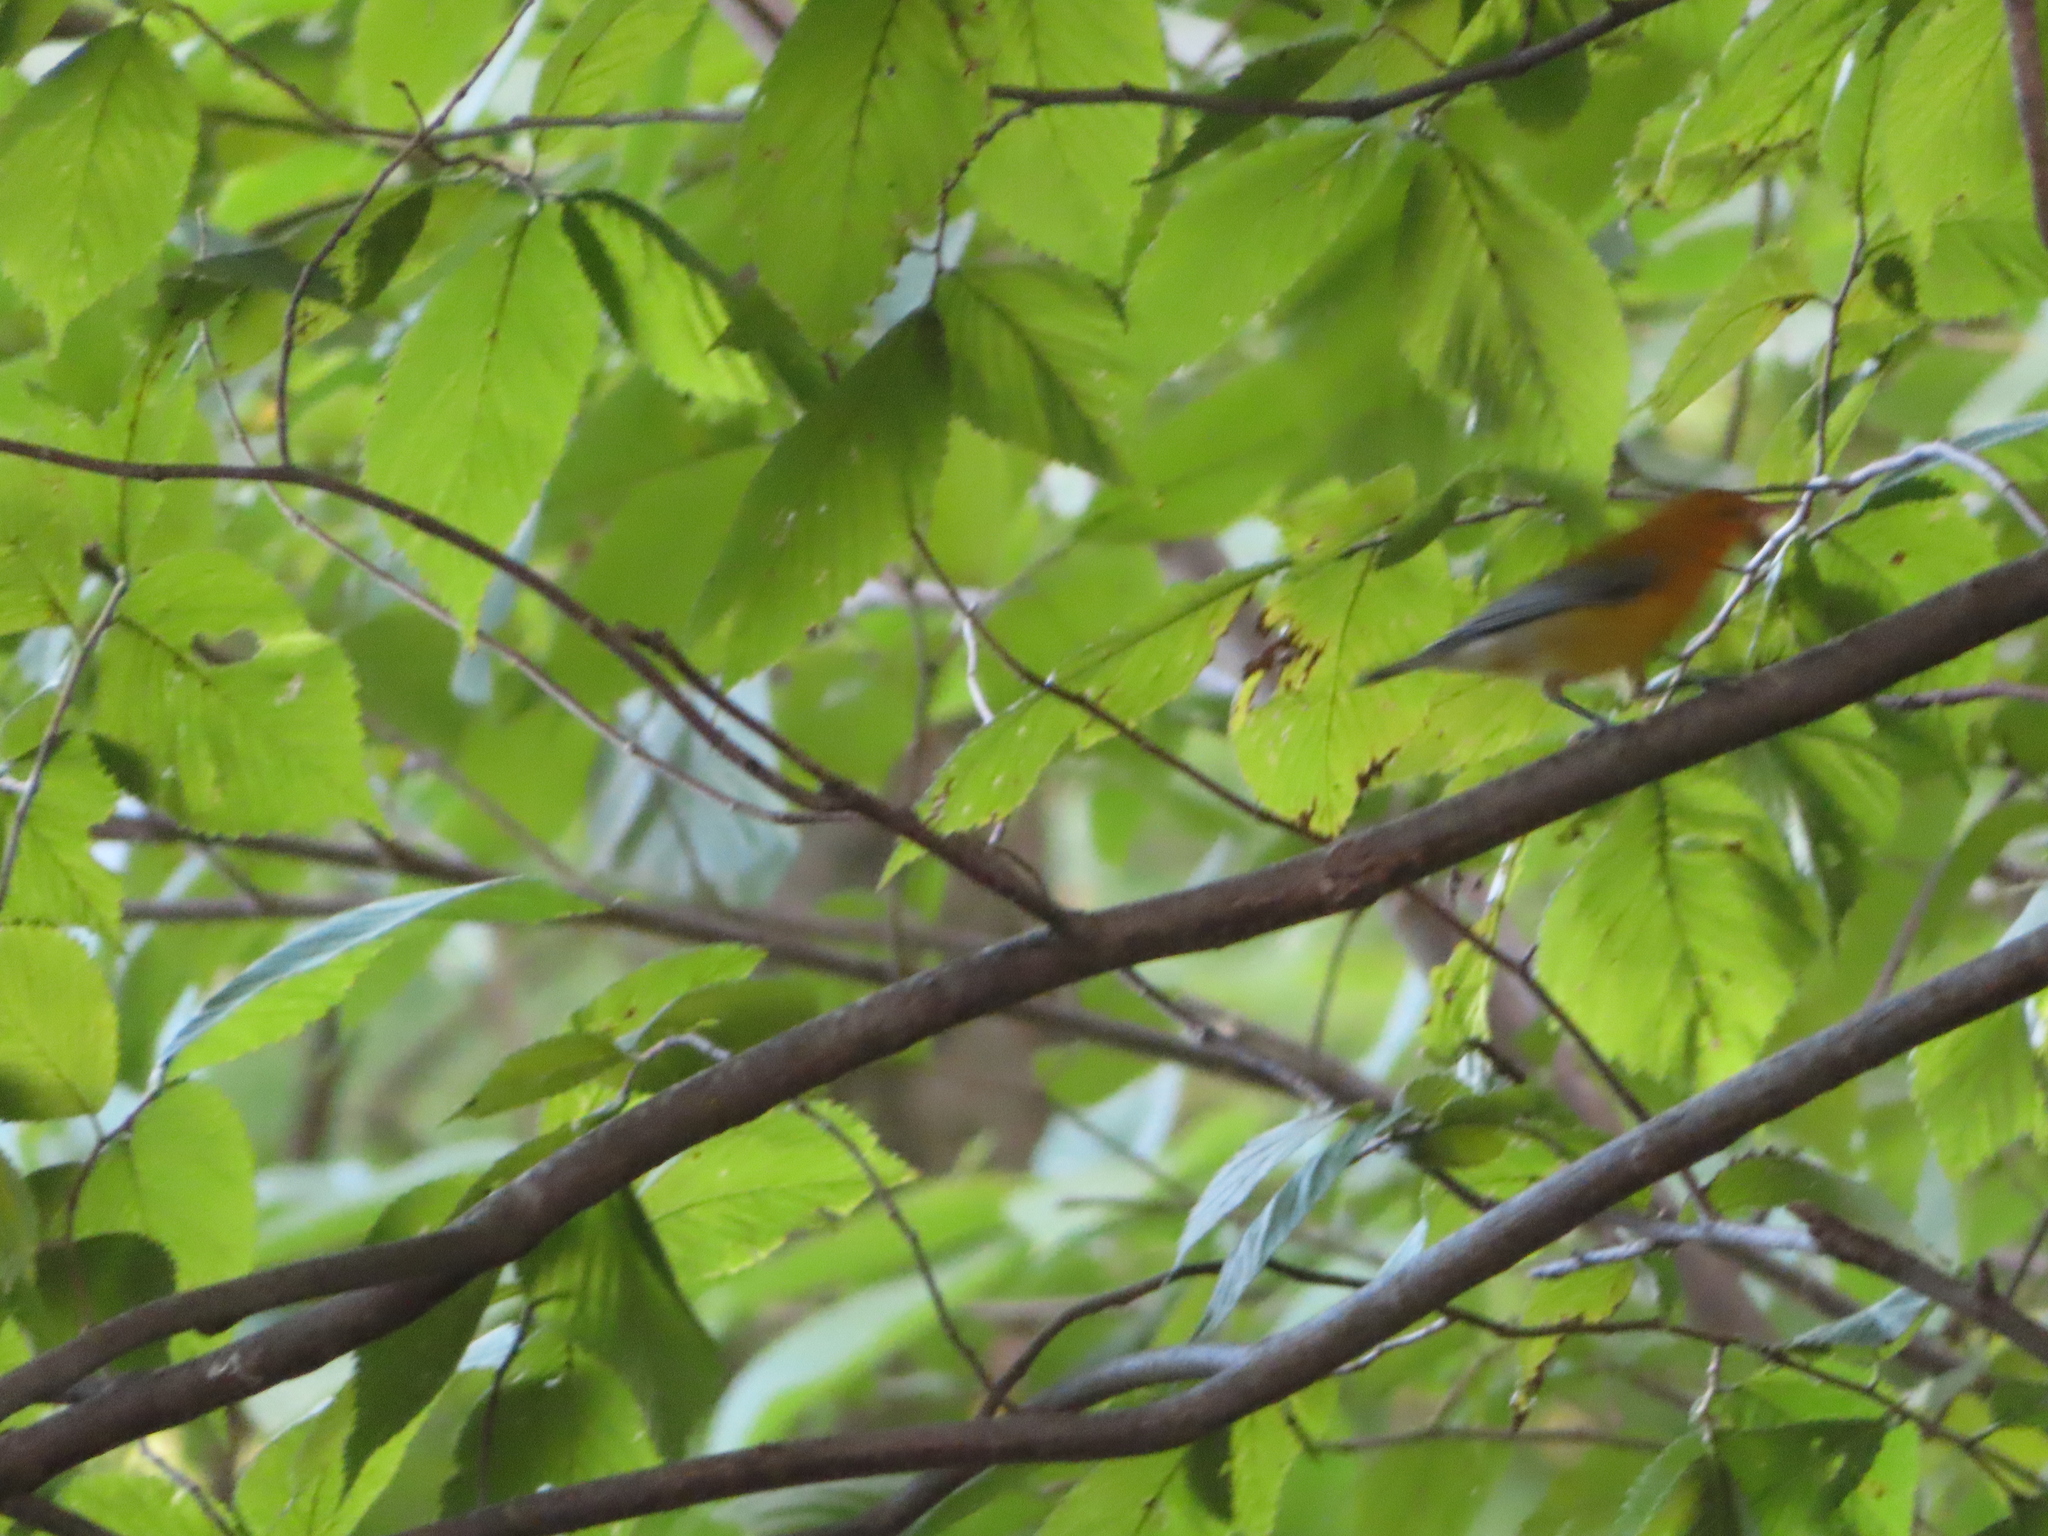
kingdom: Animalia
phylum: Chordata
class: Aves
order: Passeriformes
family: Parulidae
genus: Protonotaria
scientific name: Protonotaria citrea
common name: Prothonotary warbler
